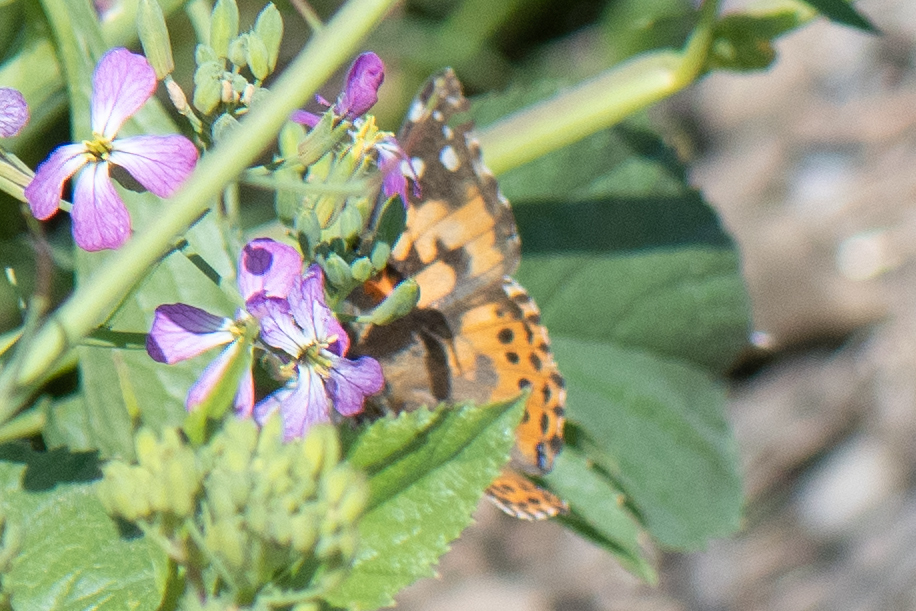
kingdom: Animalia
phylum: Arthropoda
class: Insecta
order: Lepidoptera
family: Nymphalidae
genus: Vanessa
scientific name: Vanessa cardui
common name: Painted lady
